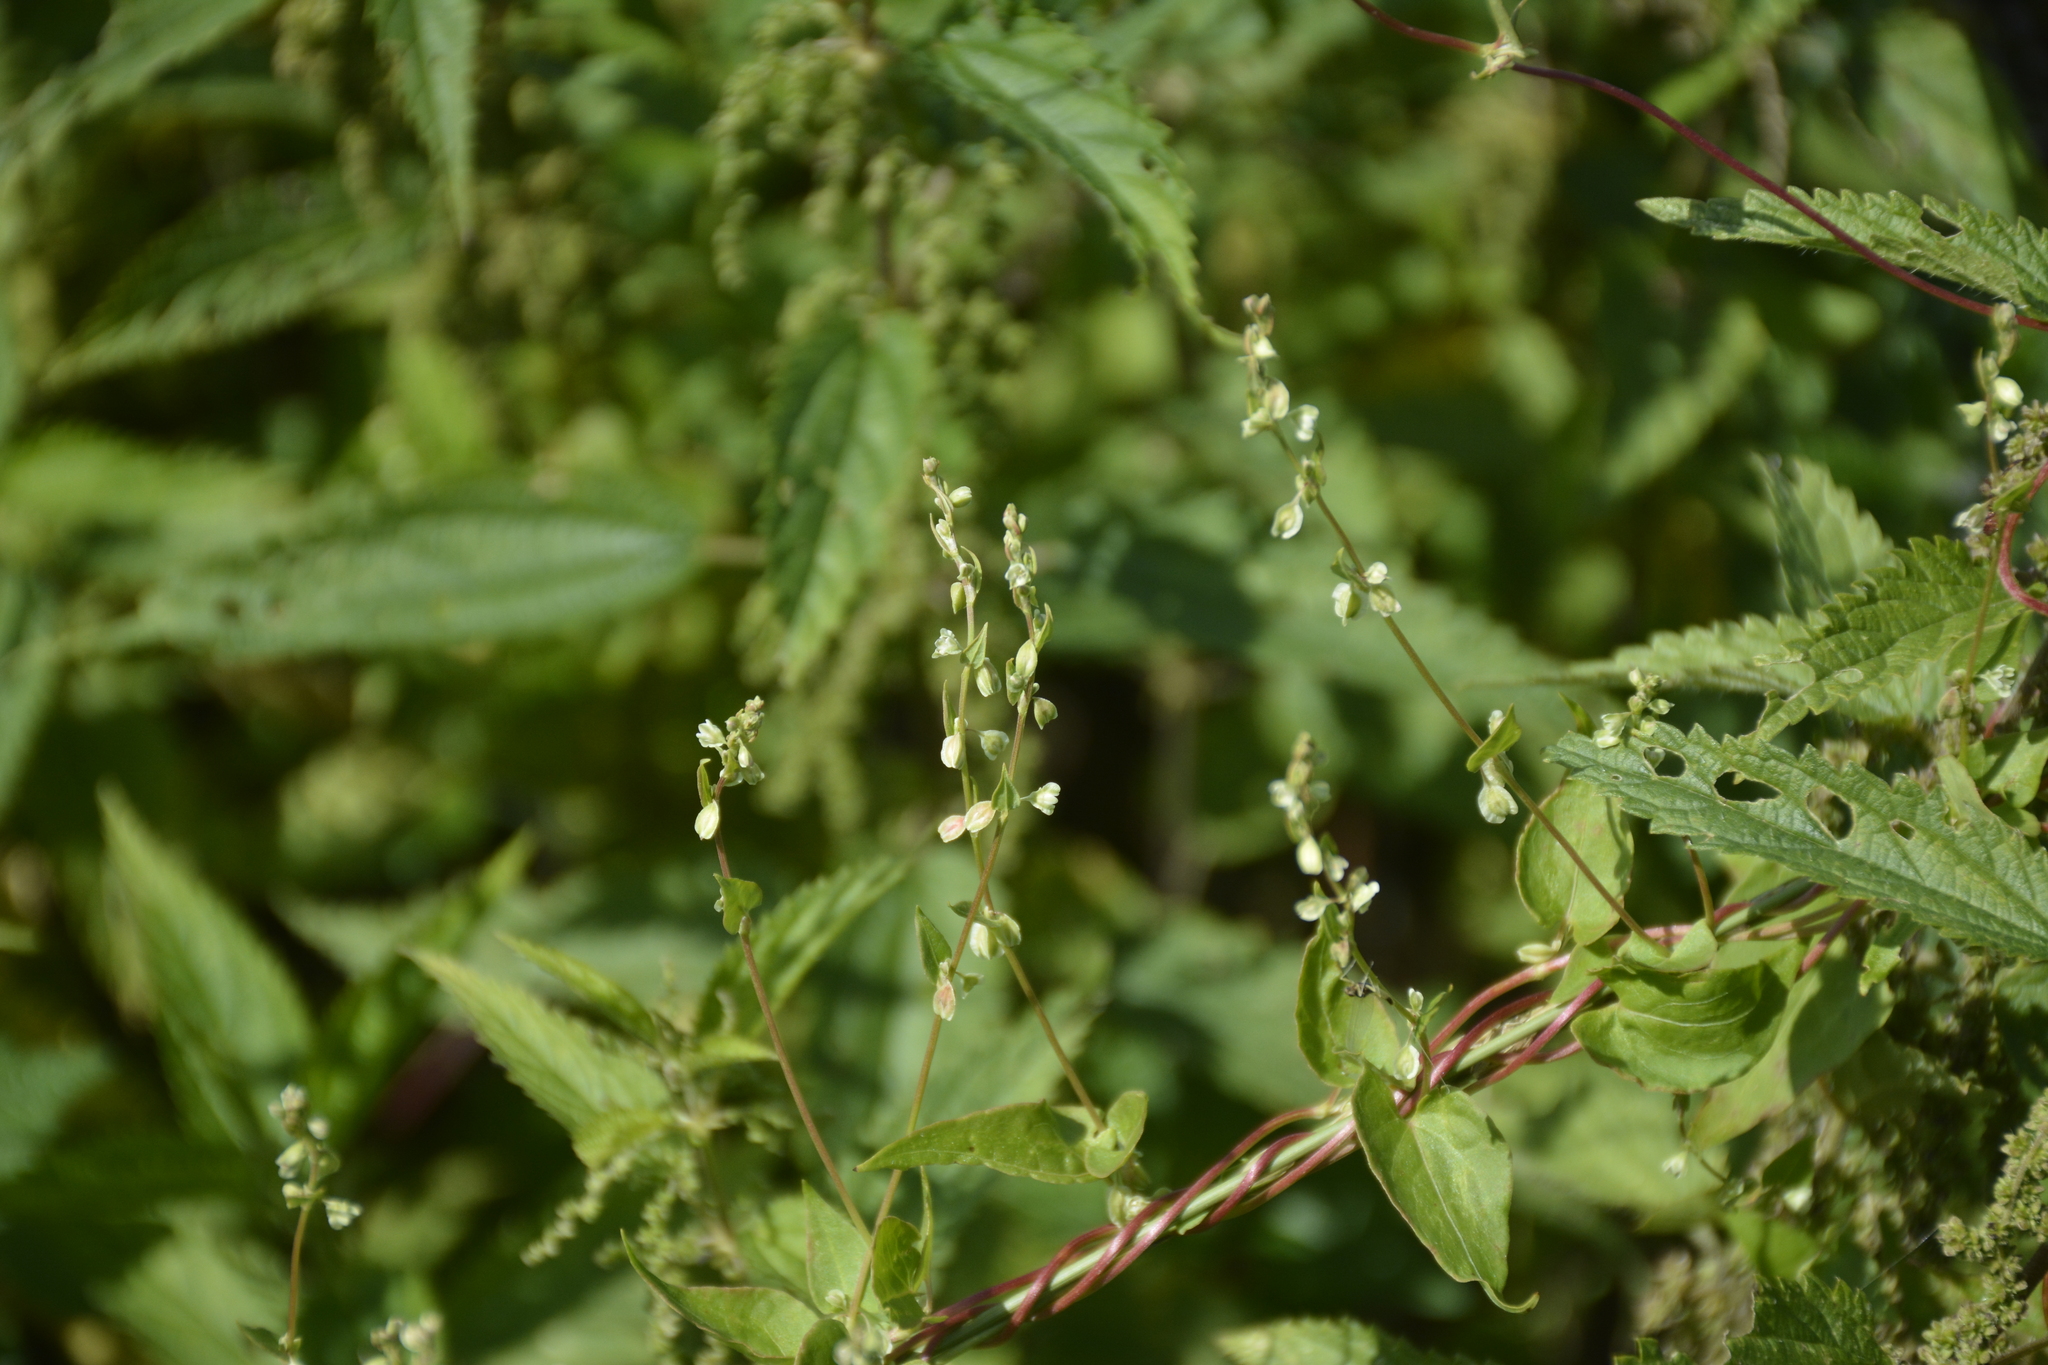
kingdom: Plantae
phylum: Tracheophyta
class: Magnoliopsida
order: Caryophyllales
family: Polygonaceae
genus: Fallopia
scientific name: Fallopia dumetorum
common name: Copse-bindweed
